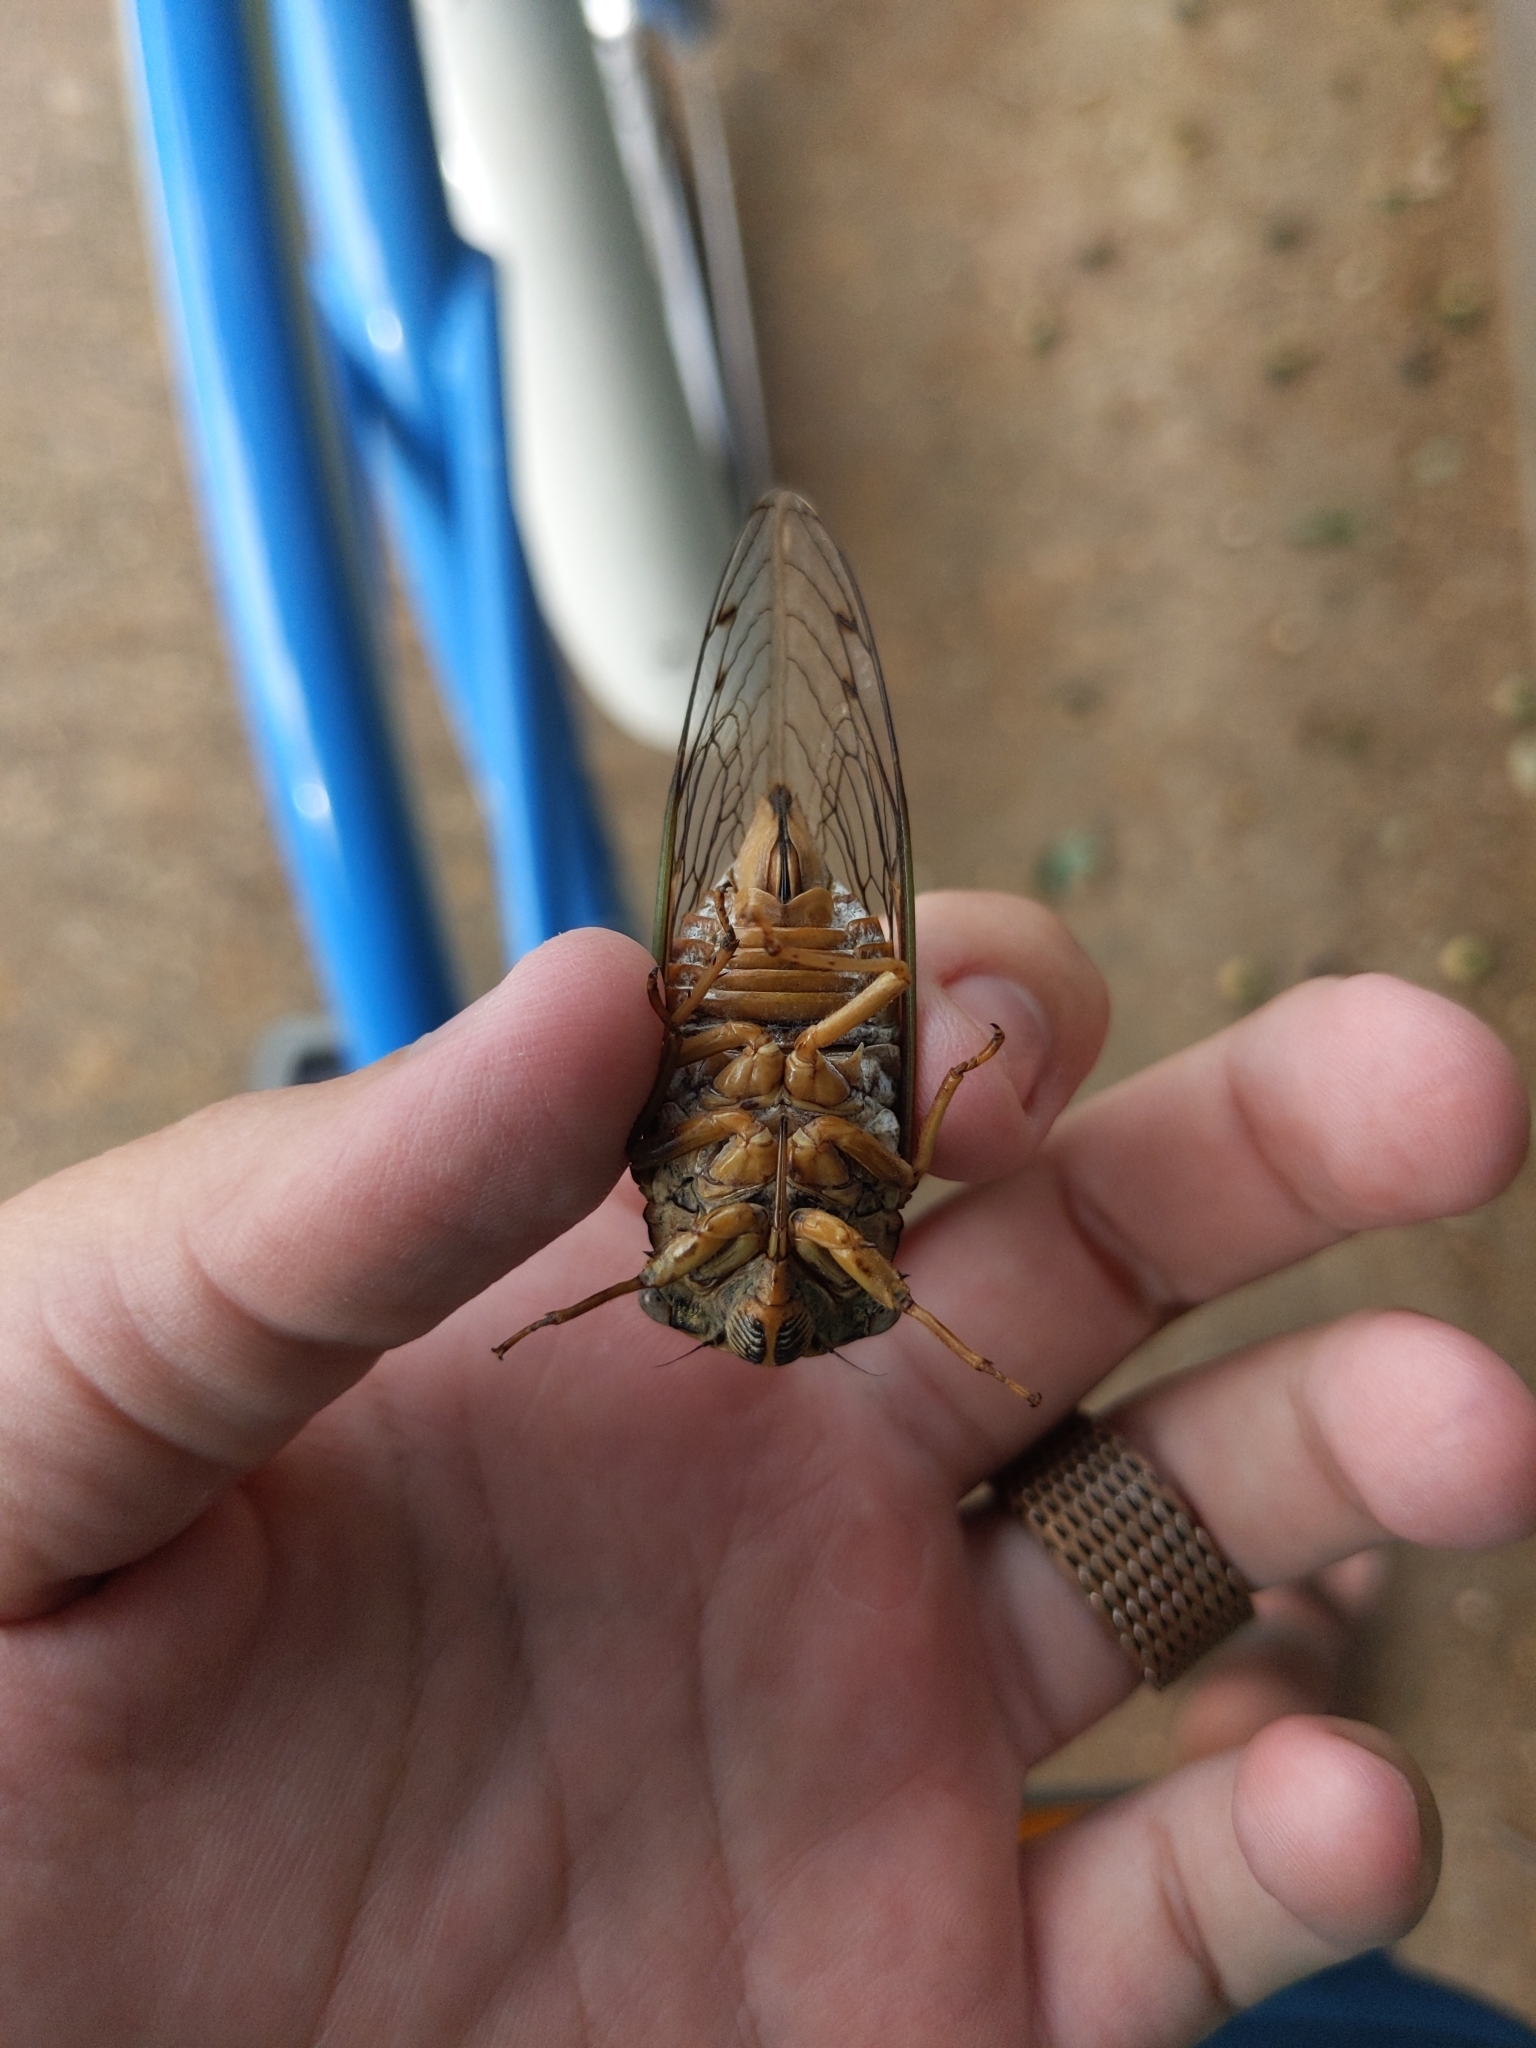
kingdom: Animalia
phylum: Arthropoda
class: Insecta
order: Hemiptera
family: Cicadidae
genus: Megatibicen
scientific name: Megatibicen resh
